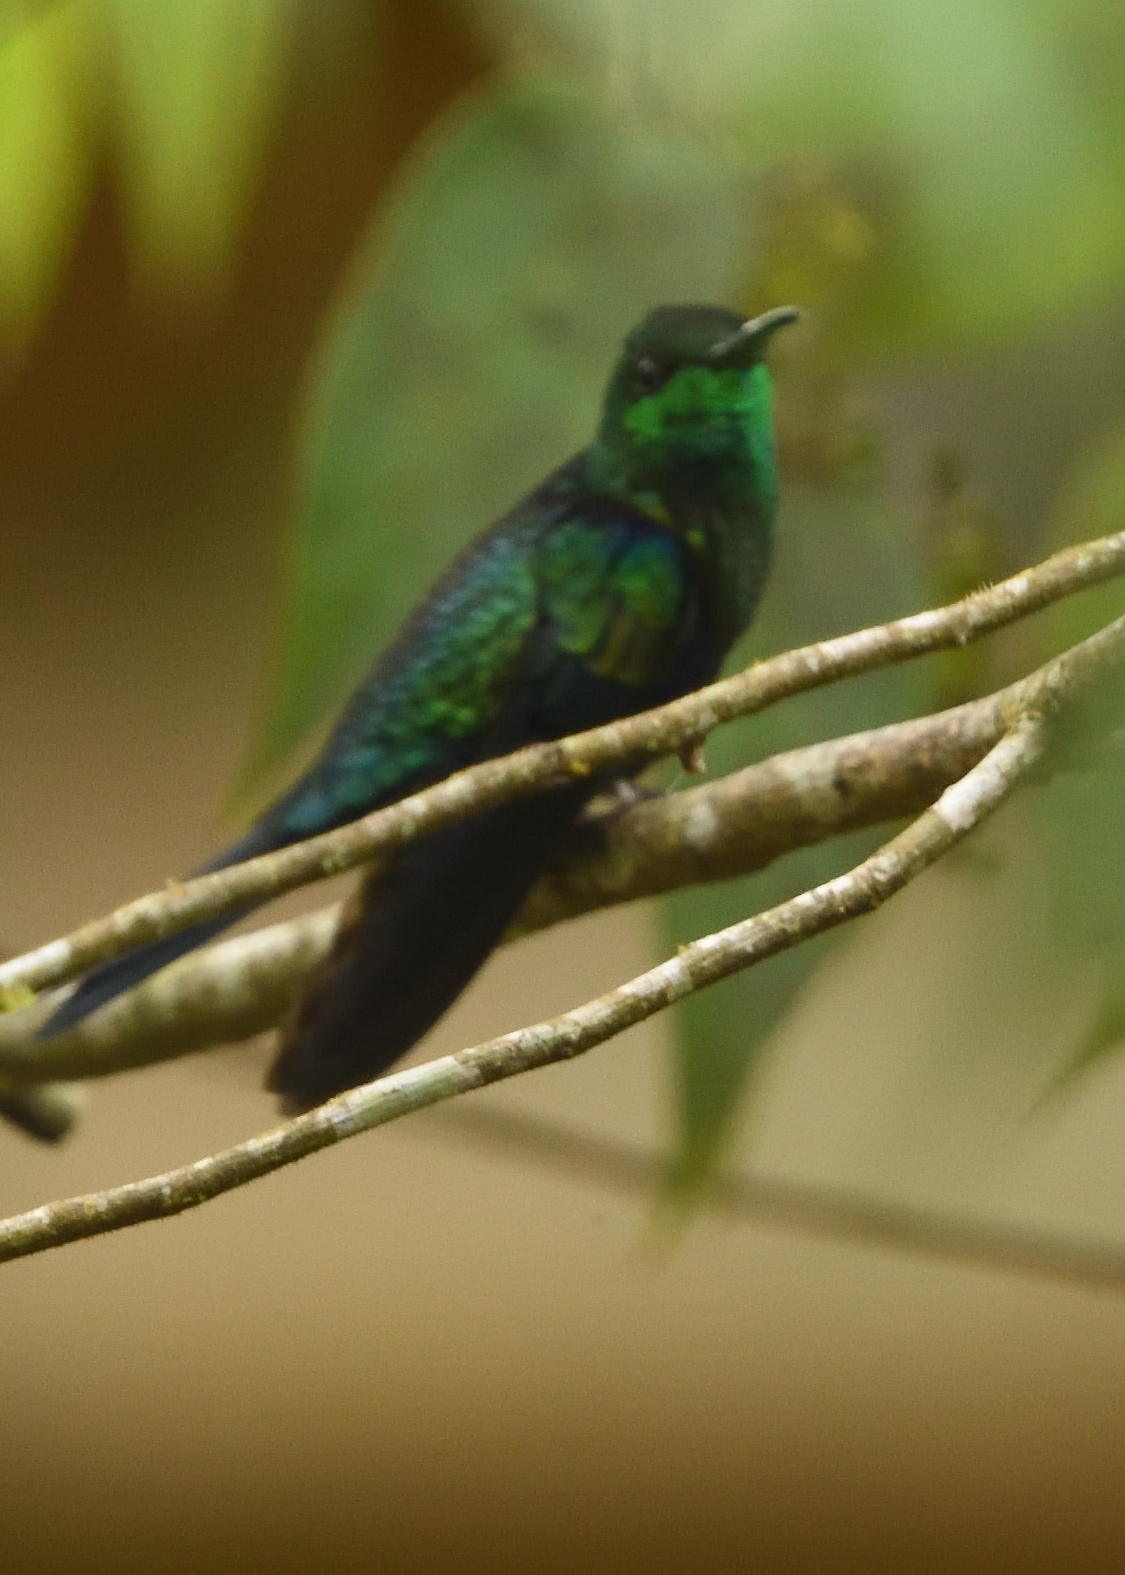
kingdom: Animalia
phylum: Chordata
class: Aves
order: Apodiformes
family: Trochilidae
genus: Thalurania
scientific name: Thalurania furcata
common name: Fork-tailed woodnymph
